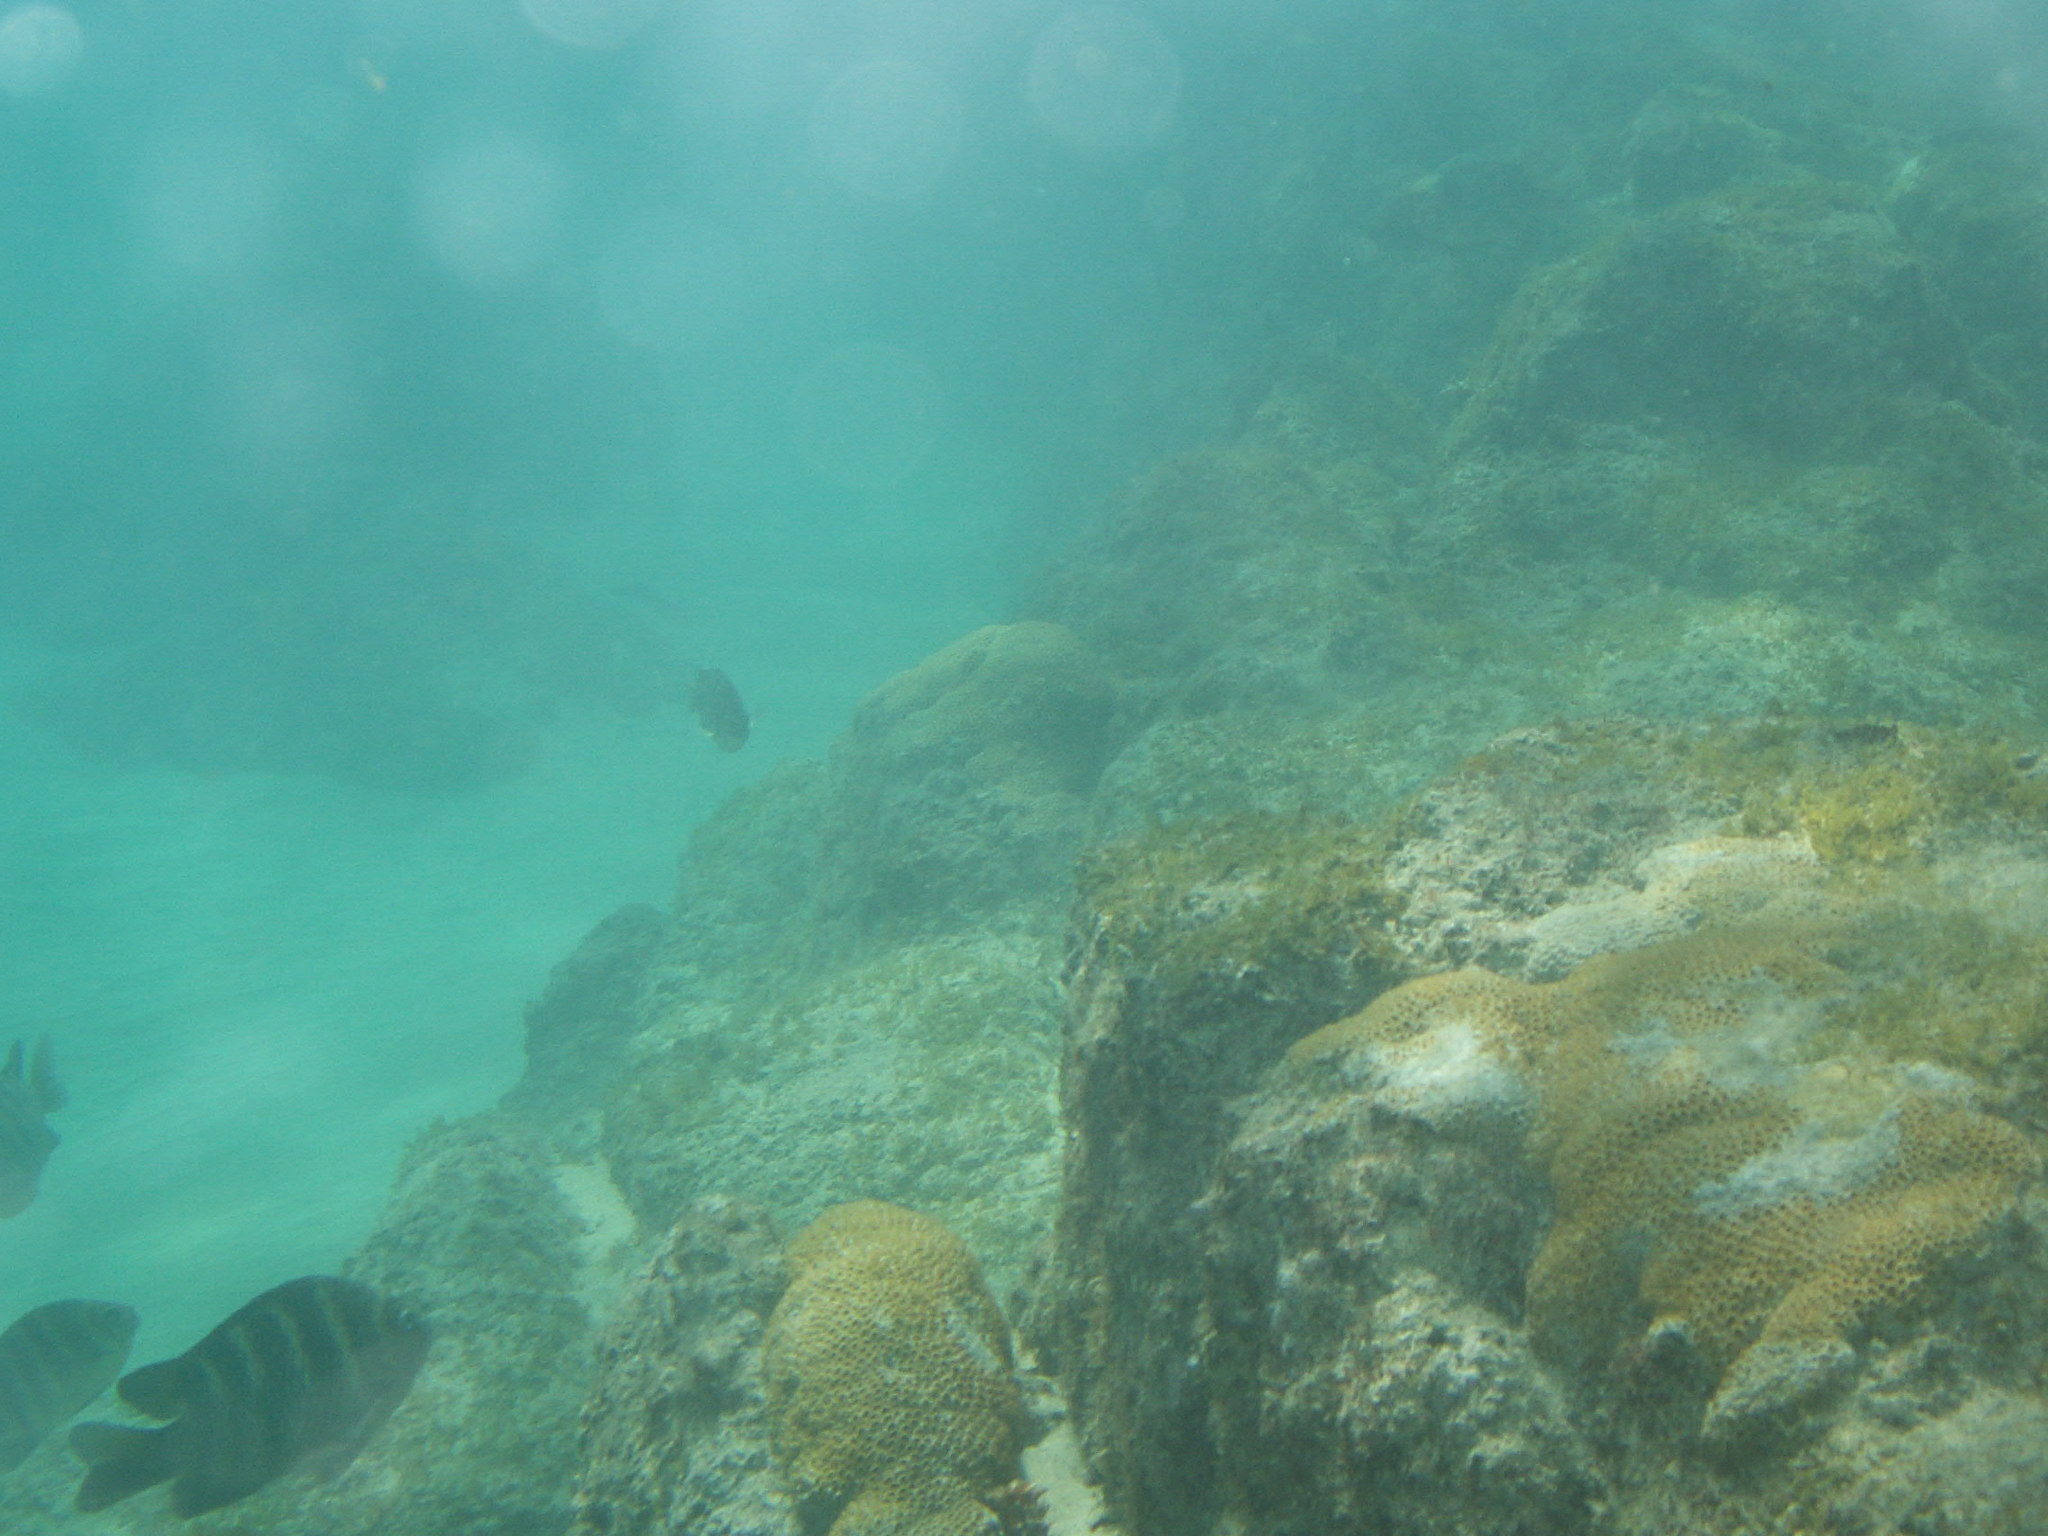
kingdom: Animalia
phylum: Chordata
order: Perciformes
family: Pomacentridae
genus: Abudefduf
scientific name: Abudefduf taurus
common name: Night sergeant
